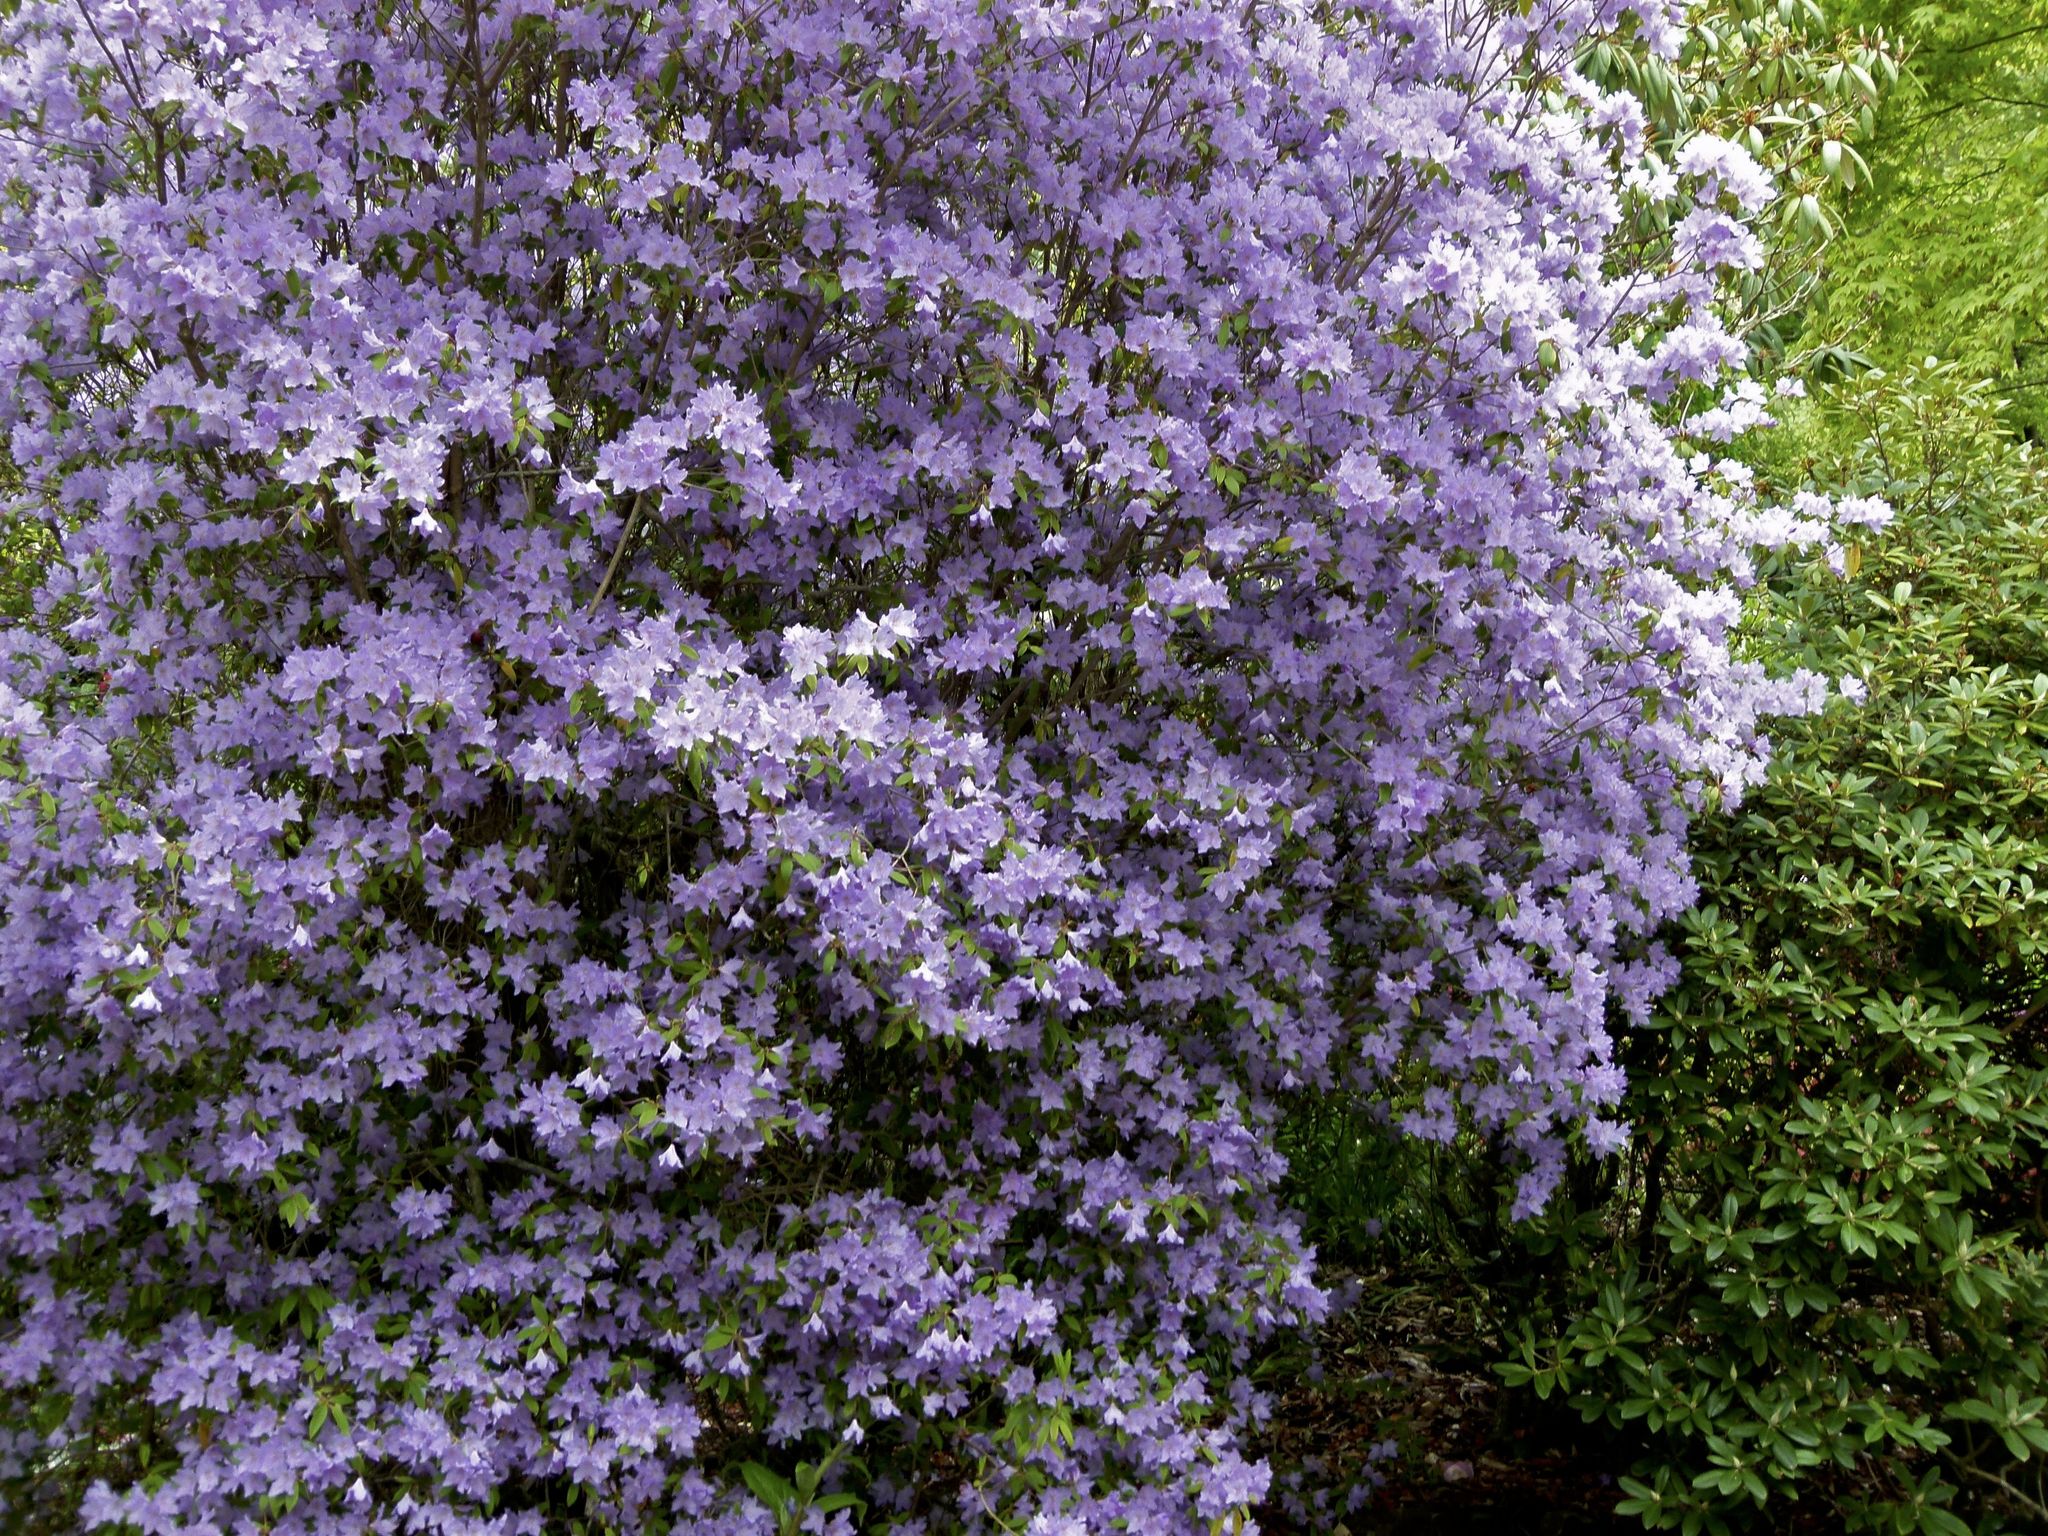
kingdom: Plantae
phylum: Tracheophyta
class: Magnoliopsida
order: Ericales
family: Ericaceae
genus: Rhododendron
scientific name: Rhododendron augustinii
